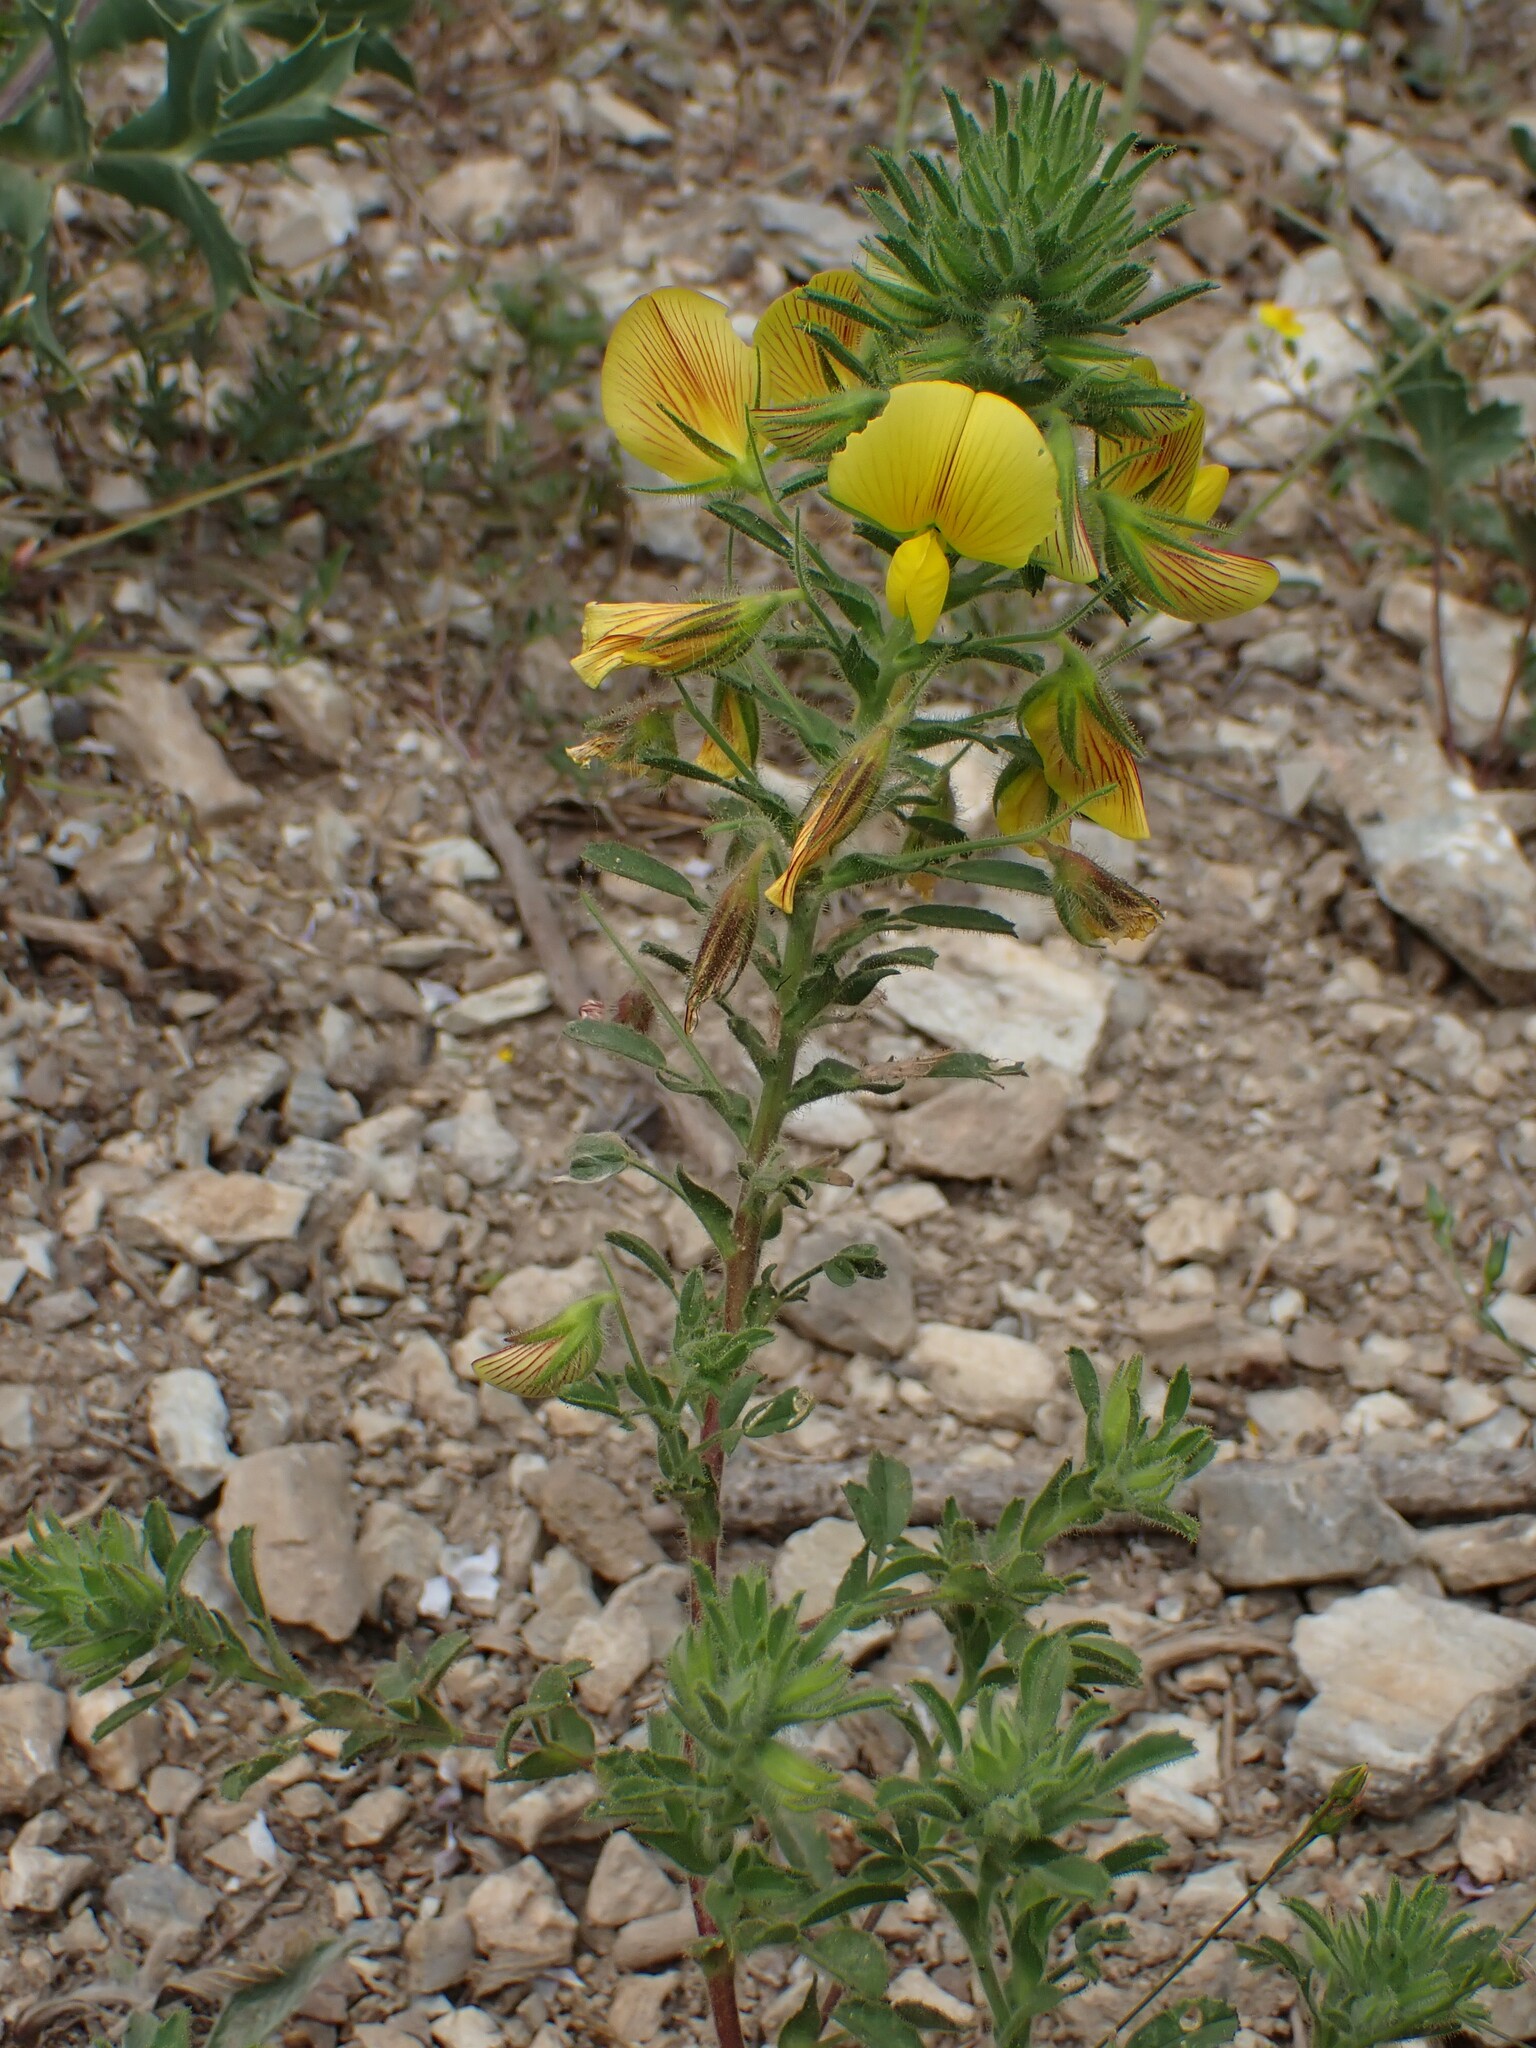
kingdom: Plantae
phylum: Tracheophyta
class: Magnoliopsida
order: Fabales
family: Fabaceae
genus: Ononis
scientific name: Ononis natrix
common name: Yellow restharrow
